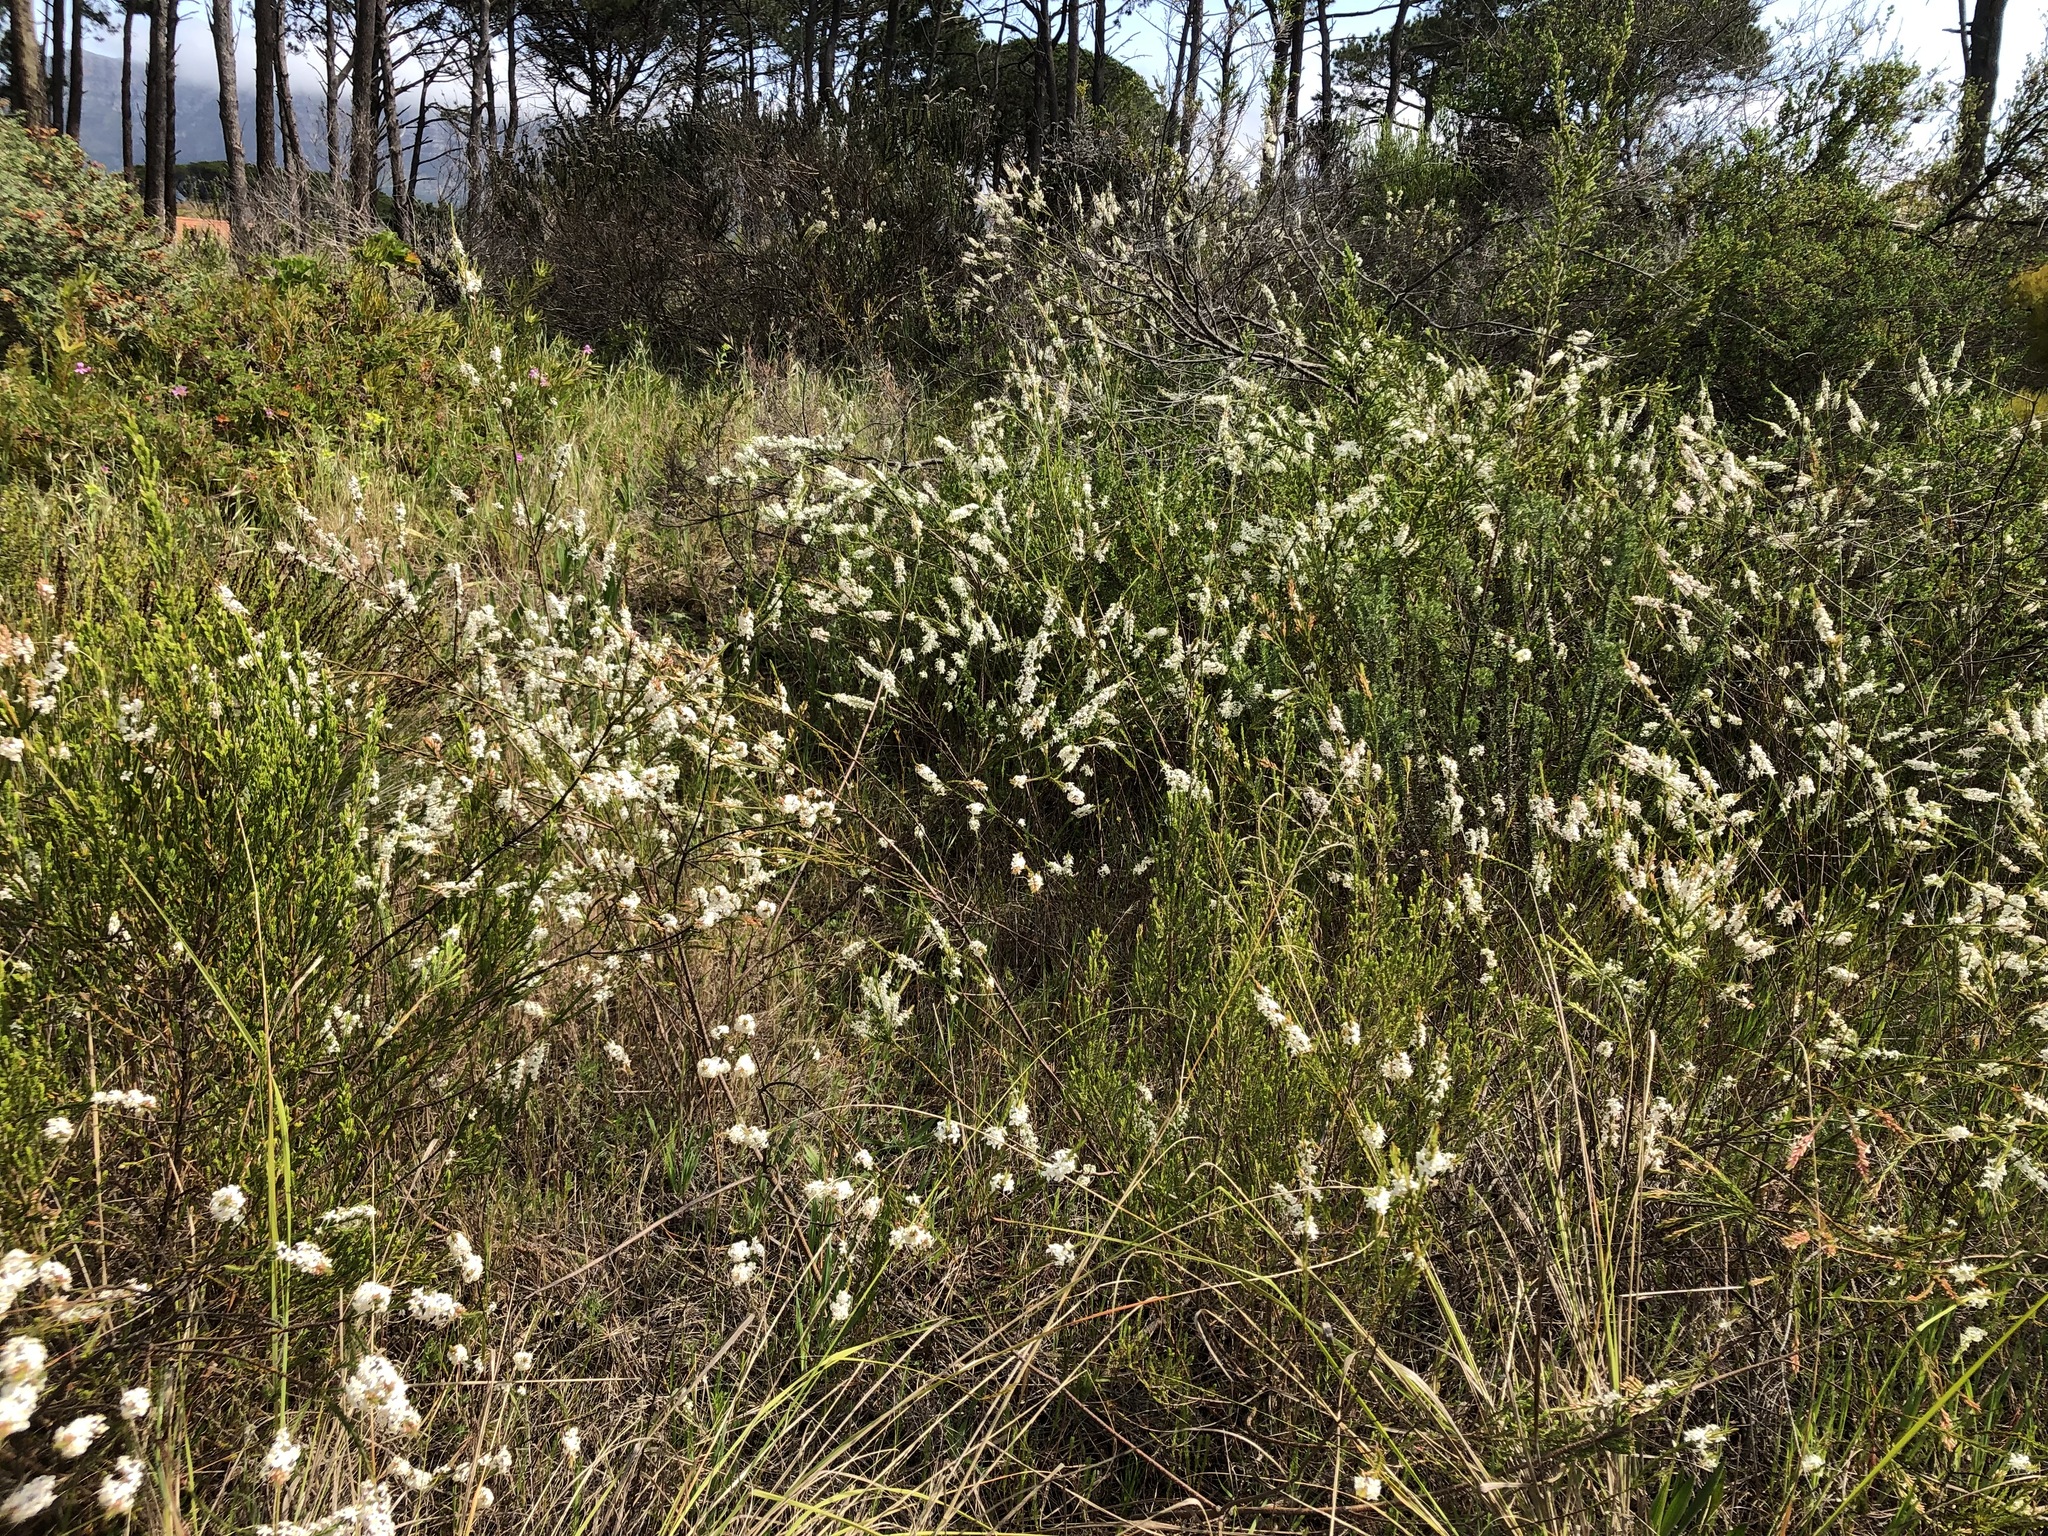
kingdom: Plantae
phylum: Tracheophyta
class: Magnoliopsida
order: Malvales
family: Thymelaeaceae
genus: Struthiola
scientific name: Struthiola dodecandra
